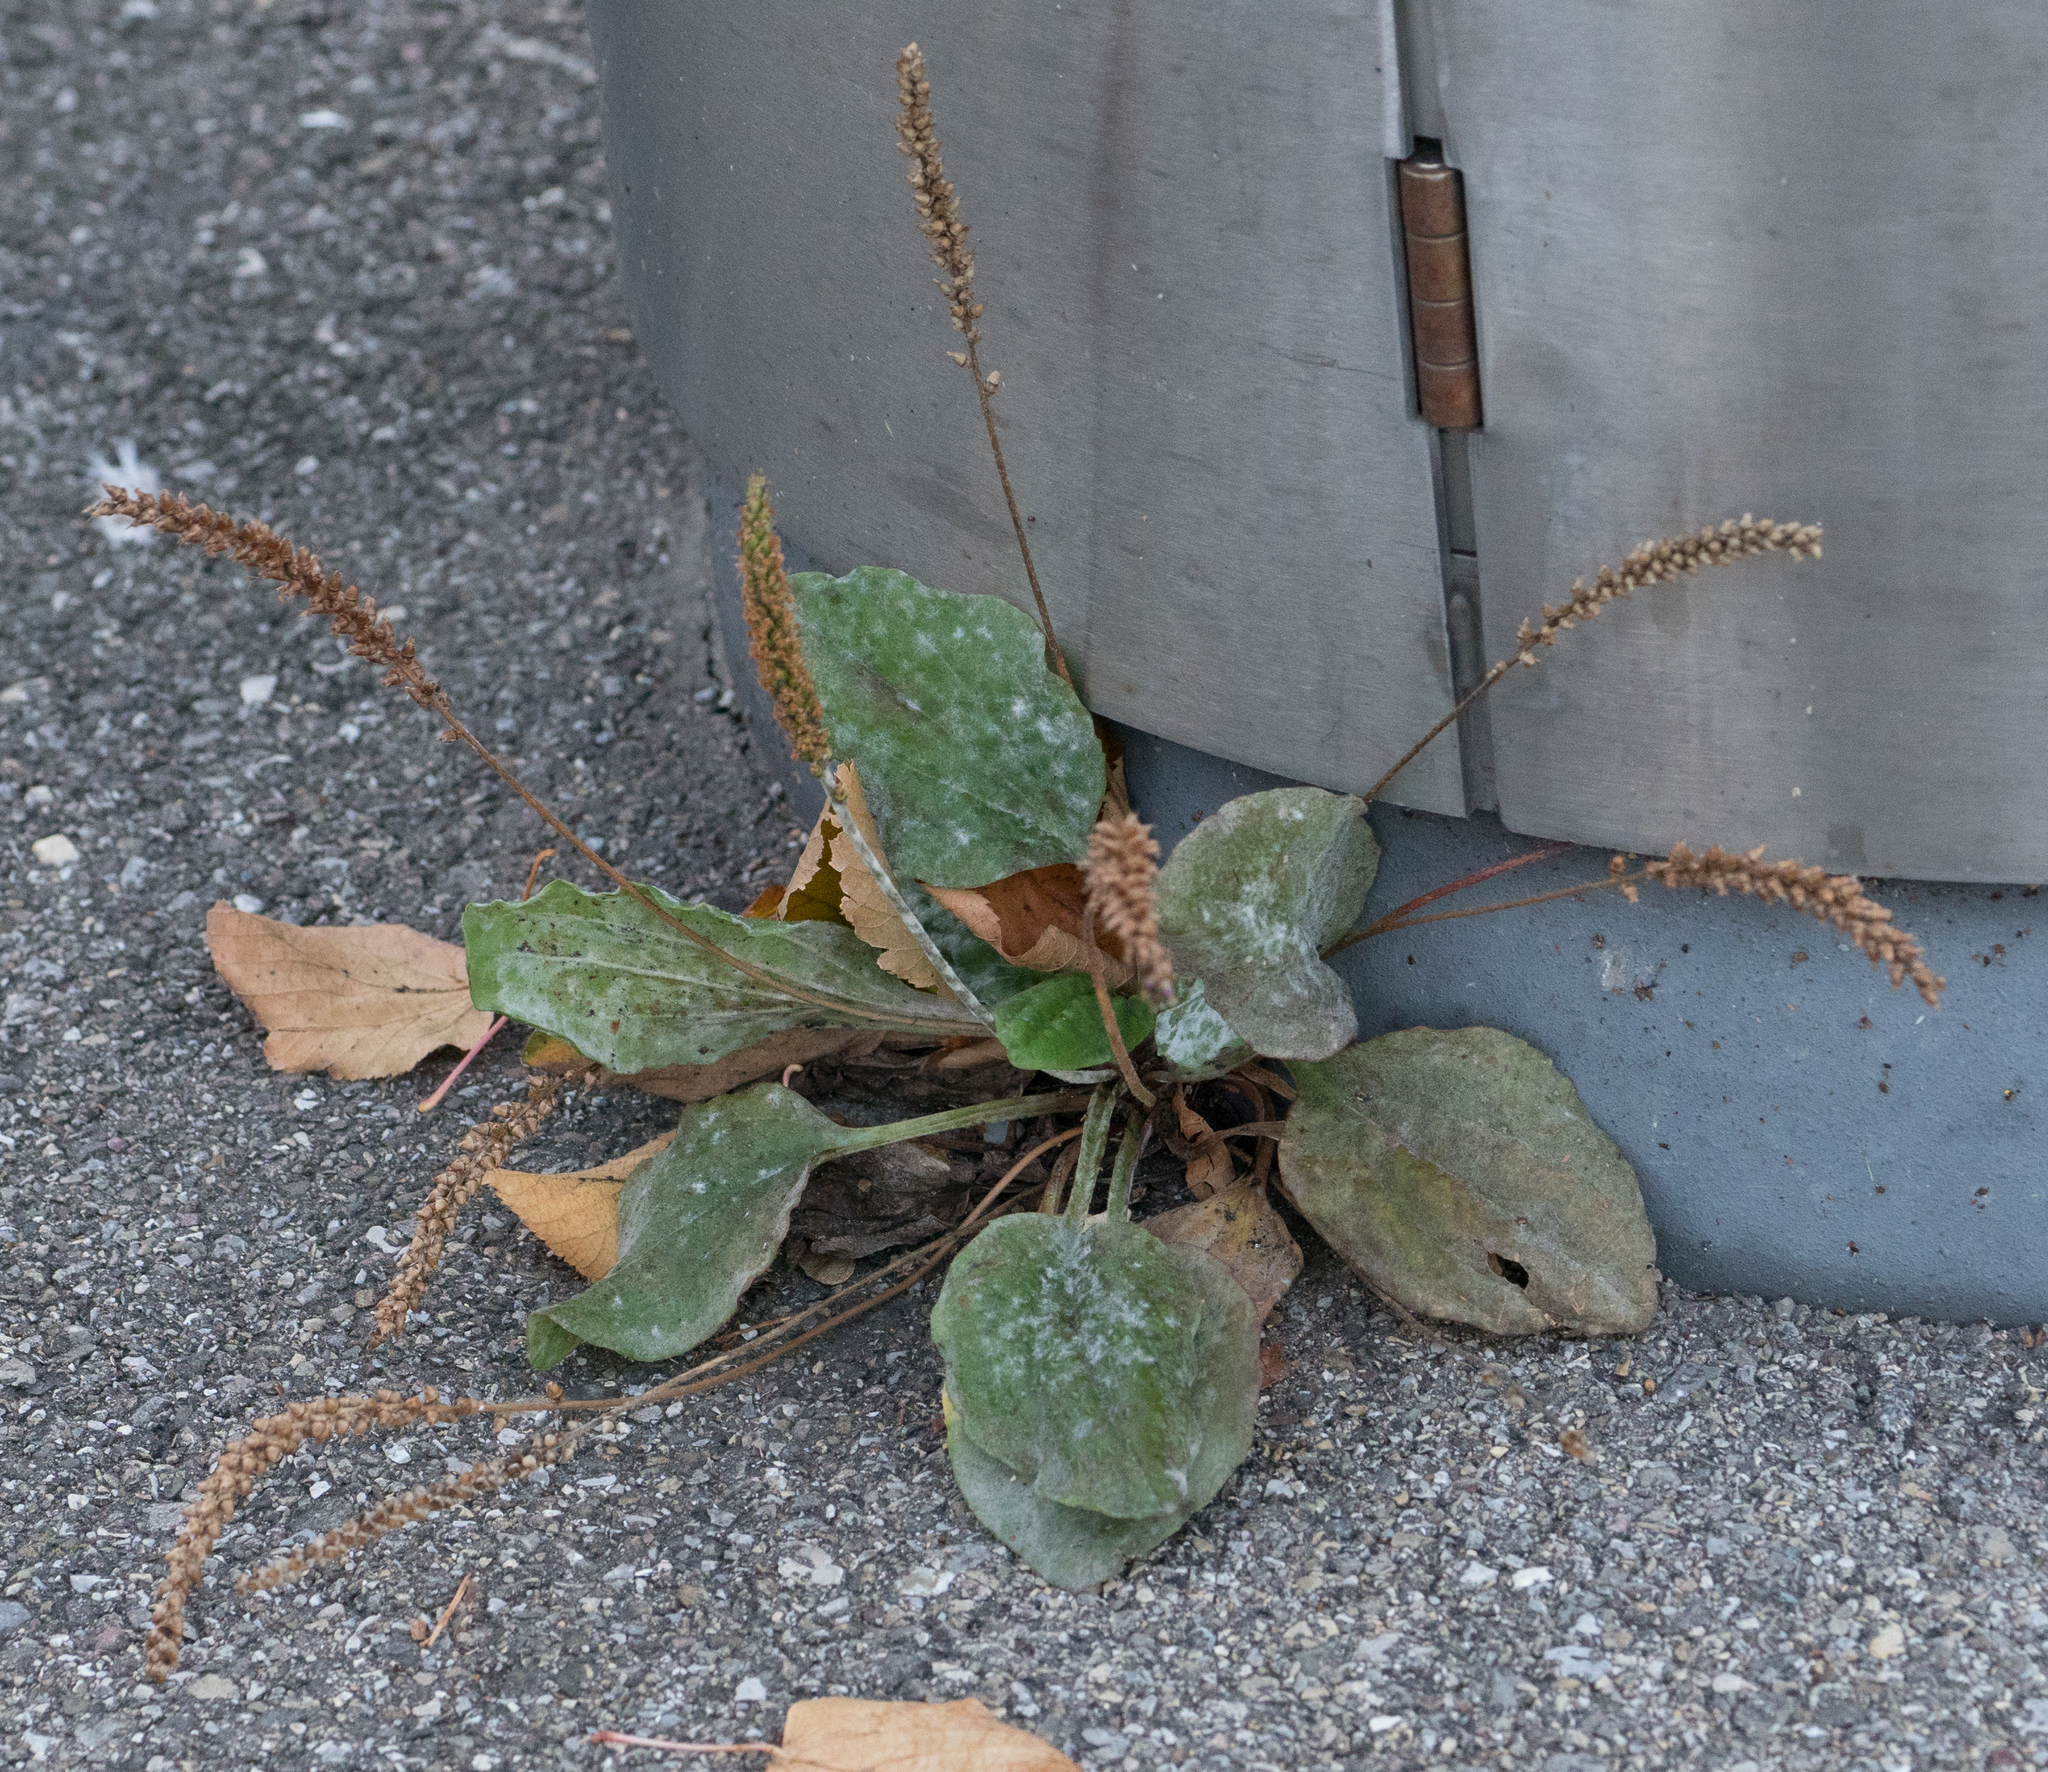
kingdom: Plantae
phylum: Tracheophyta
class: Magnoliopsida
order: Lamiales
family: Plantaginaceae
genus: Plantago
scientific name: Plantago major
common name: Common plantain
